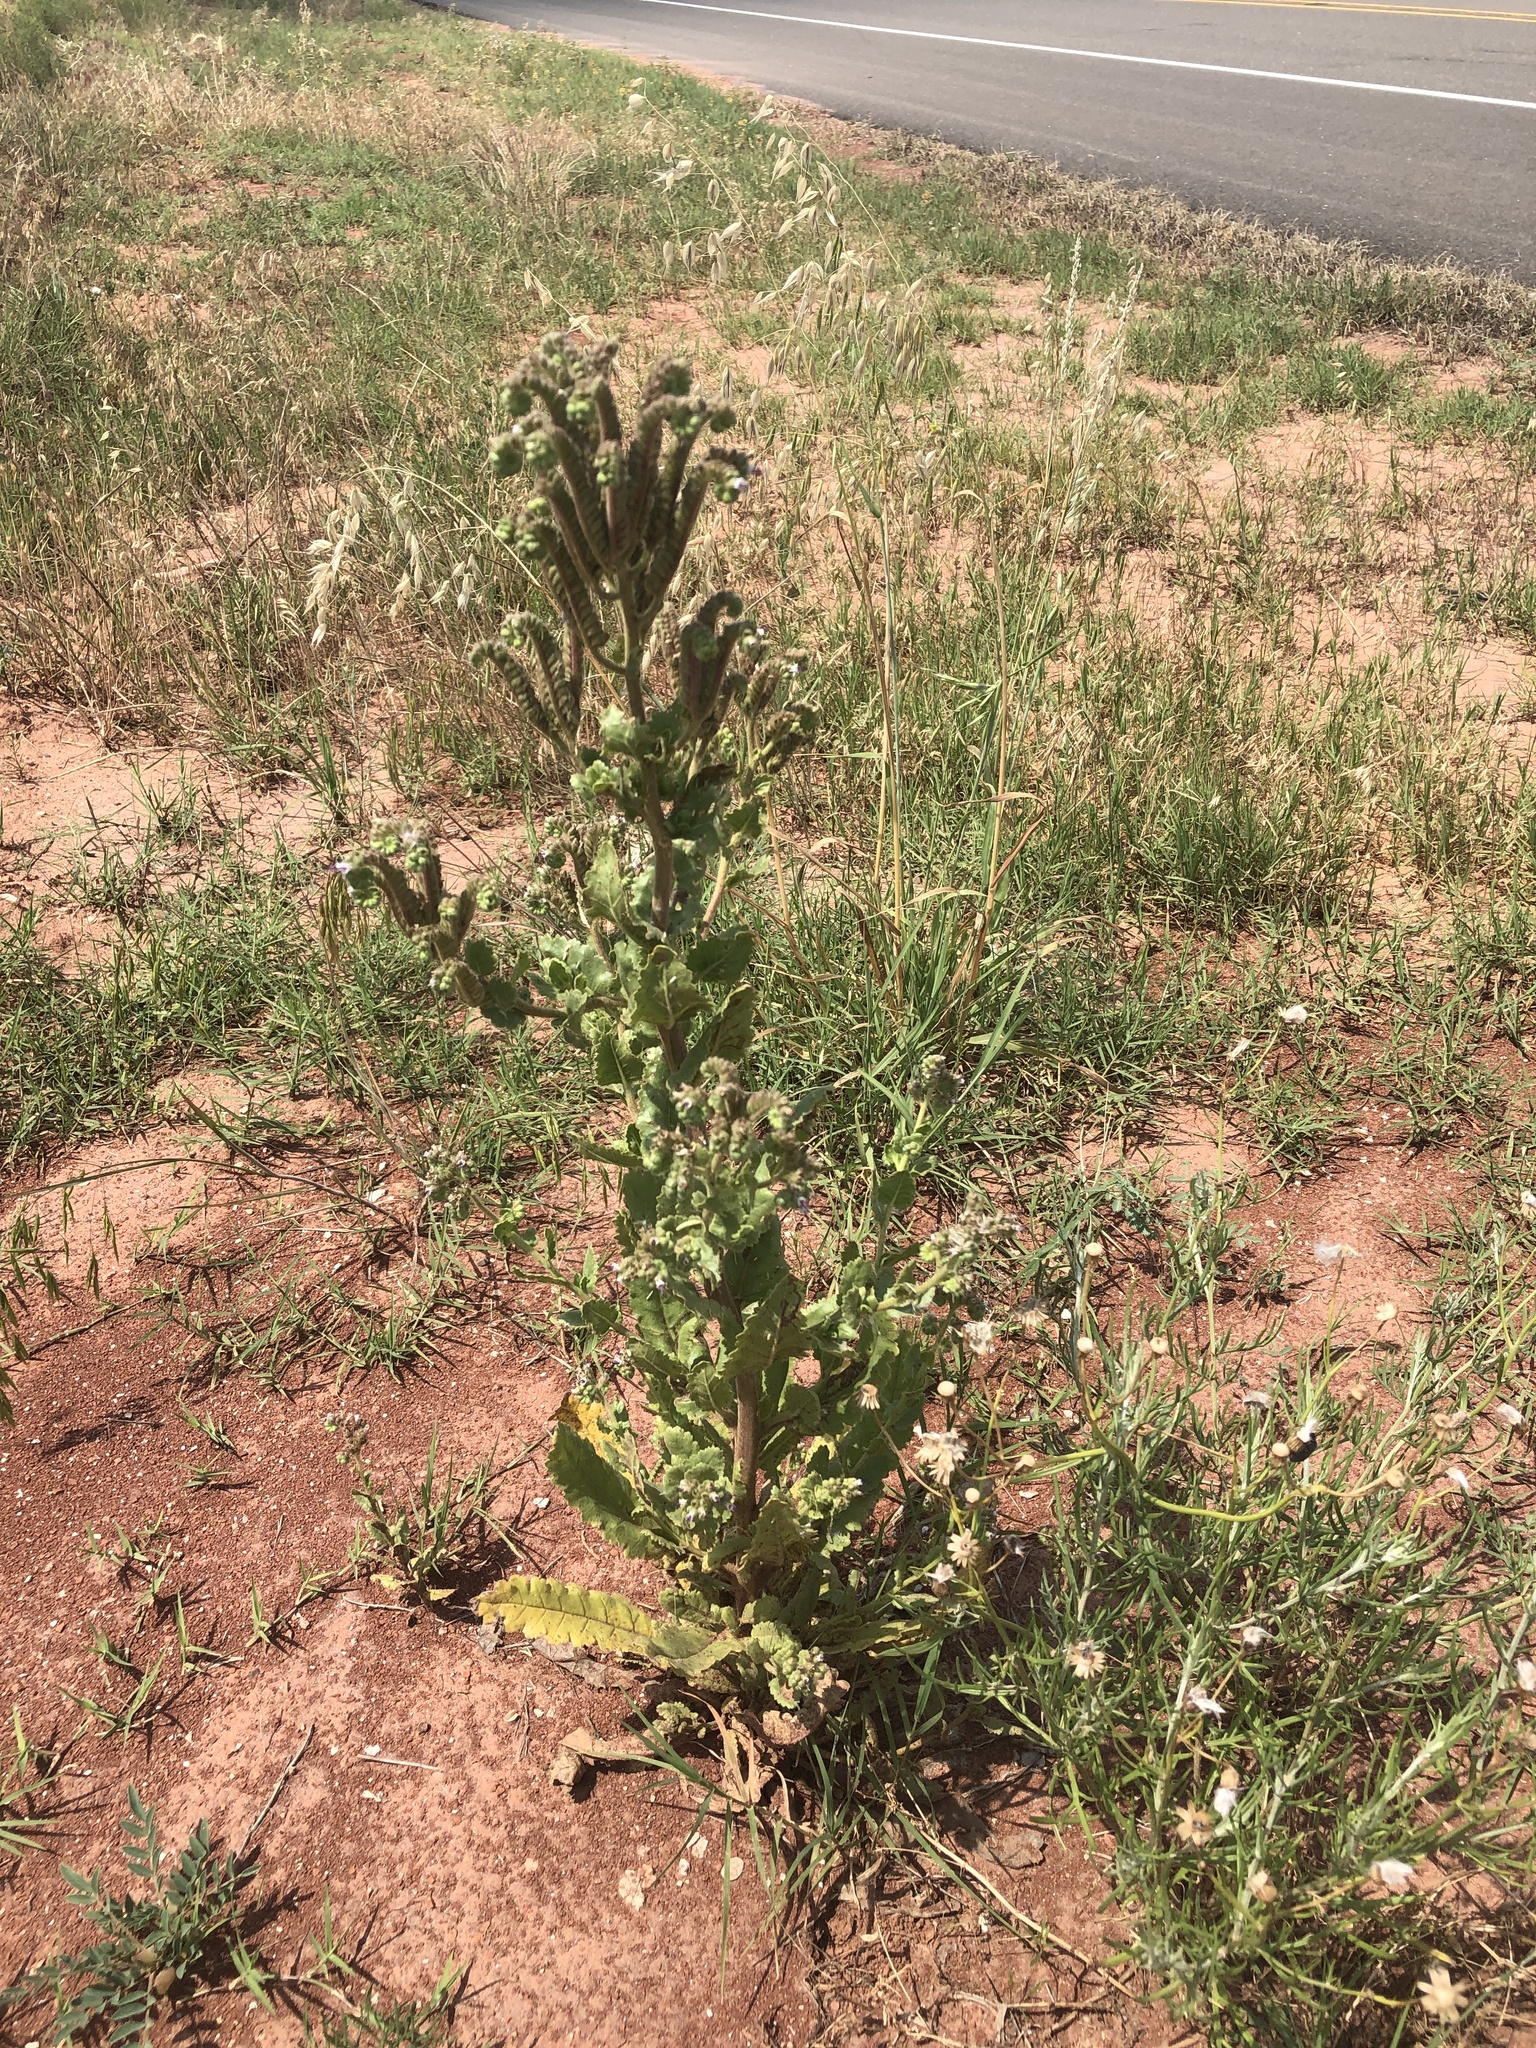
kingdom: Plantae
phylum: Tracheophyta
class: Magnoliopsida
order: Boraginales
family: Hydrophyllaceae
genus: Phacelia
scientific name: Phacelia integrifolia
